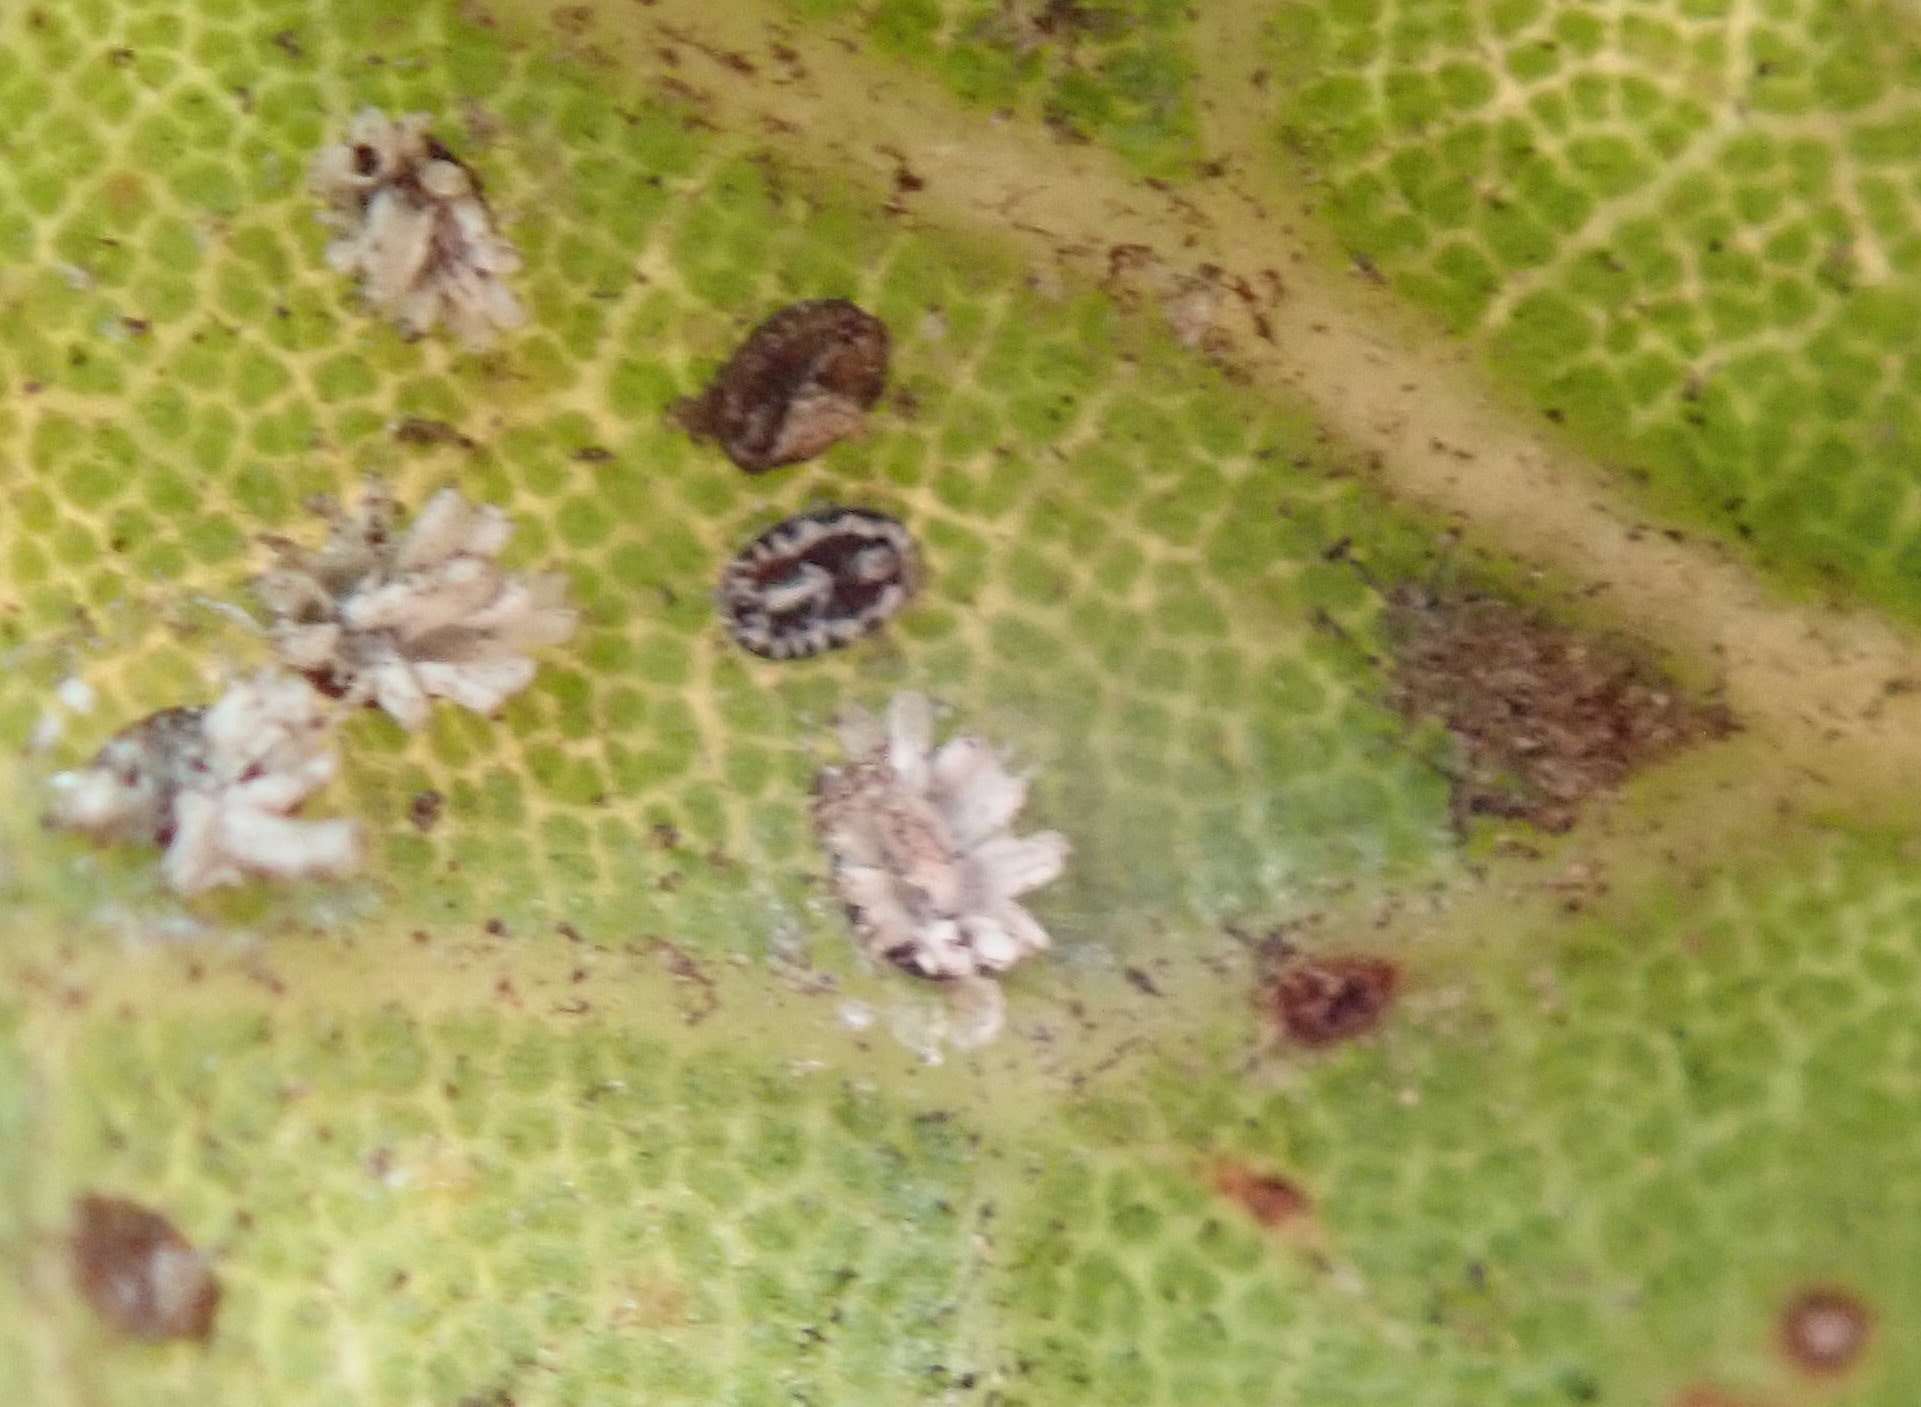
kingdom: Animalia
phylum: Arthropoda
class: Insecta
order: Hemiptera
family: Aleyrodidae
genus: Aleuroplatus
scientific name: Aleuroplatus coronata
